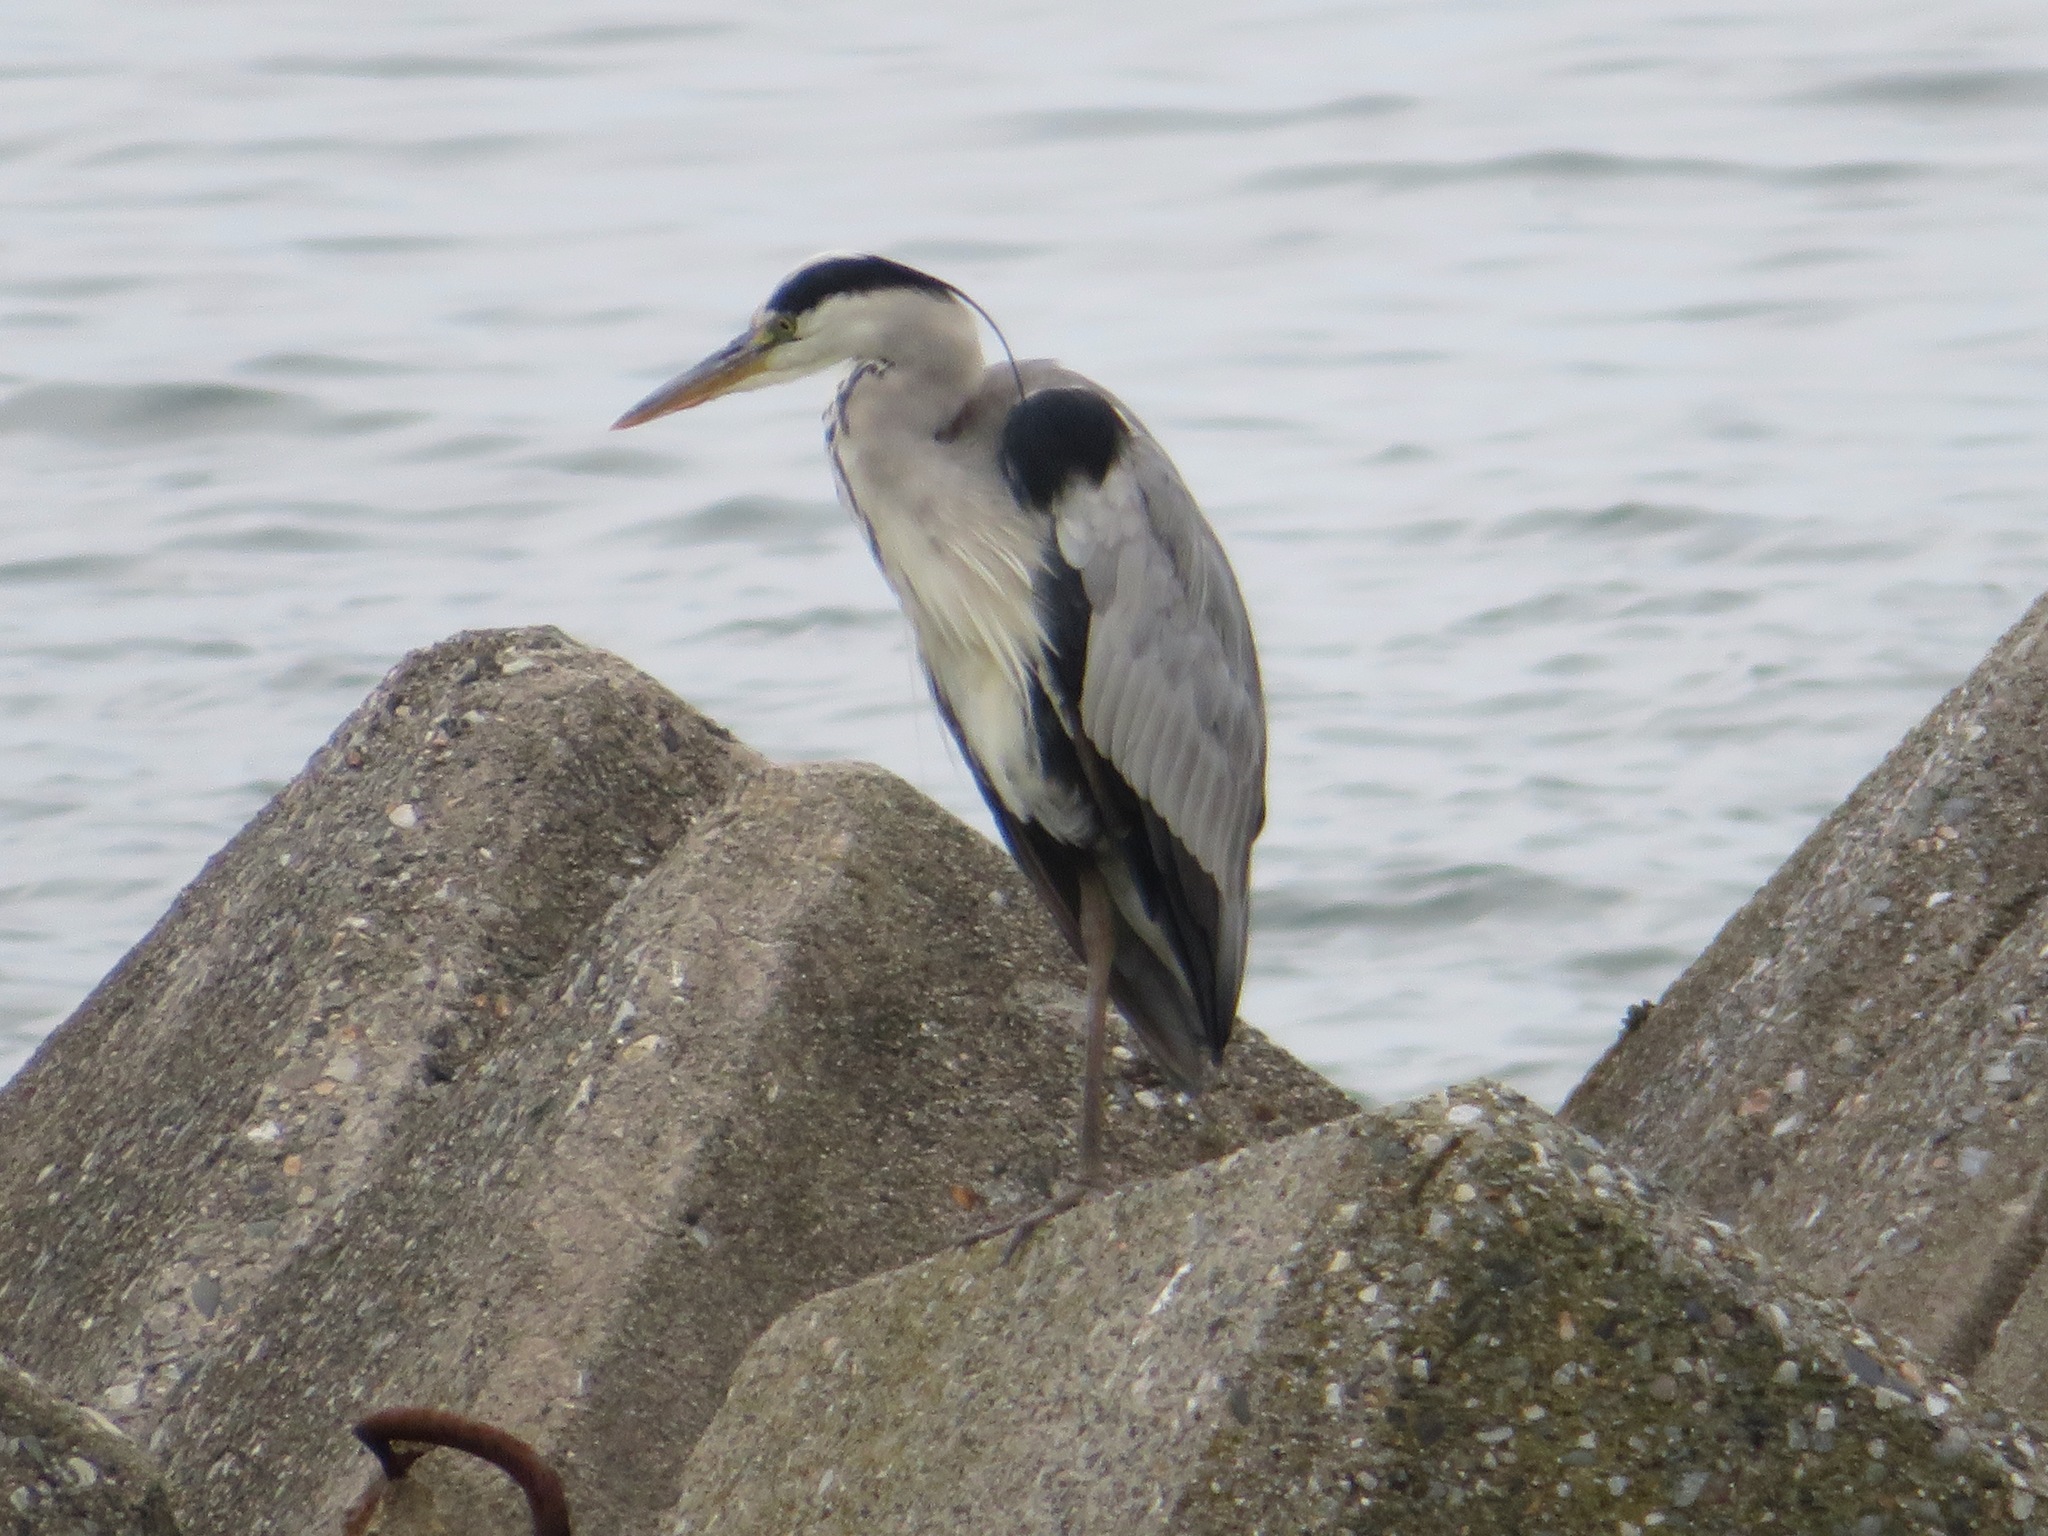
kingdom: Animalia
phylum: Chordata
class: Aves
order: Pelecaniformes
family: Ardeidae
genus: Ardea
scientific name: Ardea cinerea
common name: Grey heron
